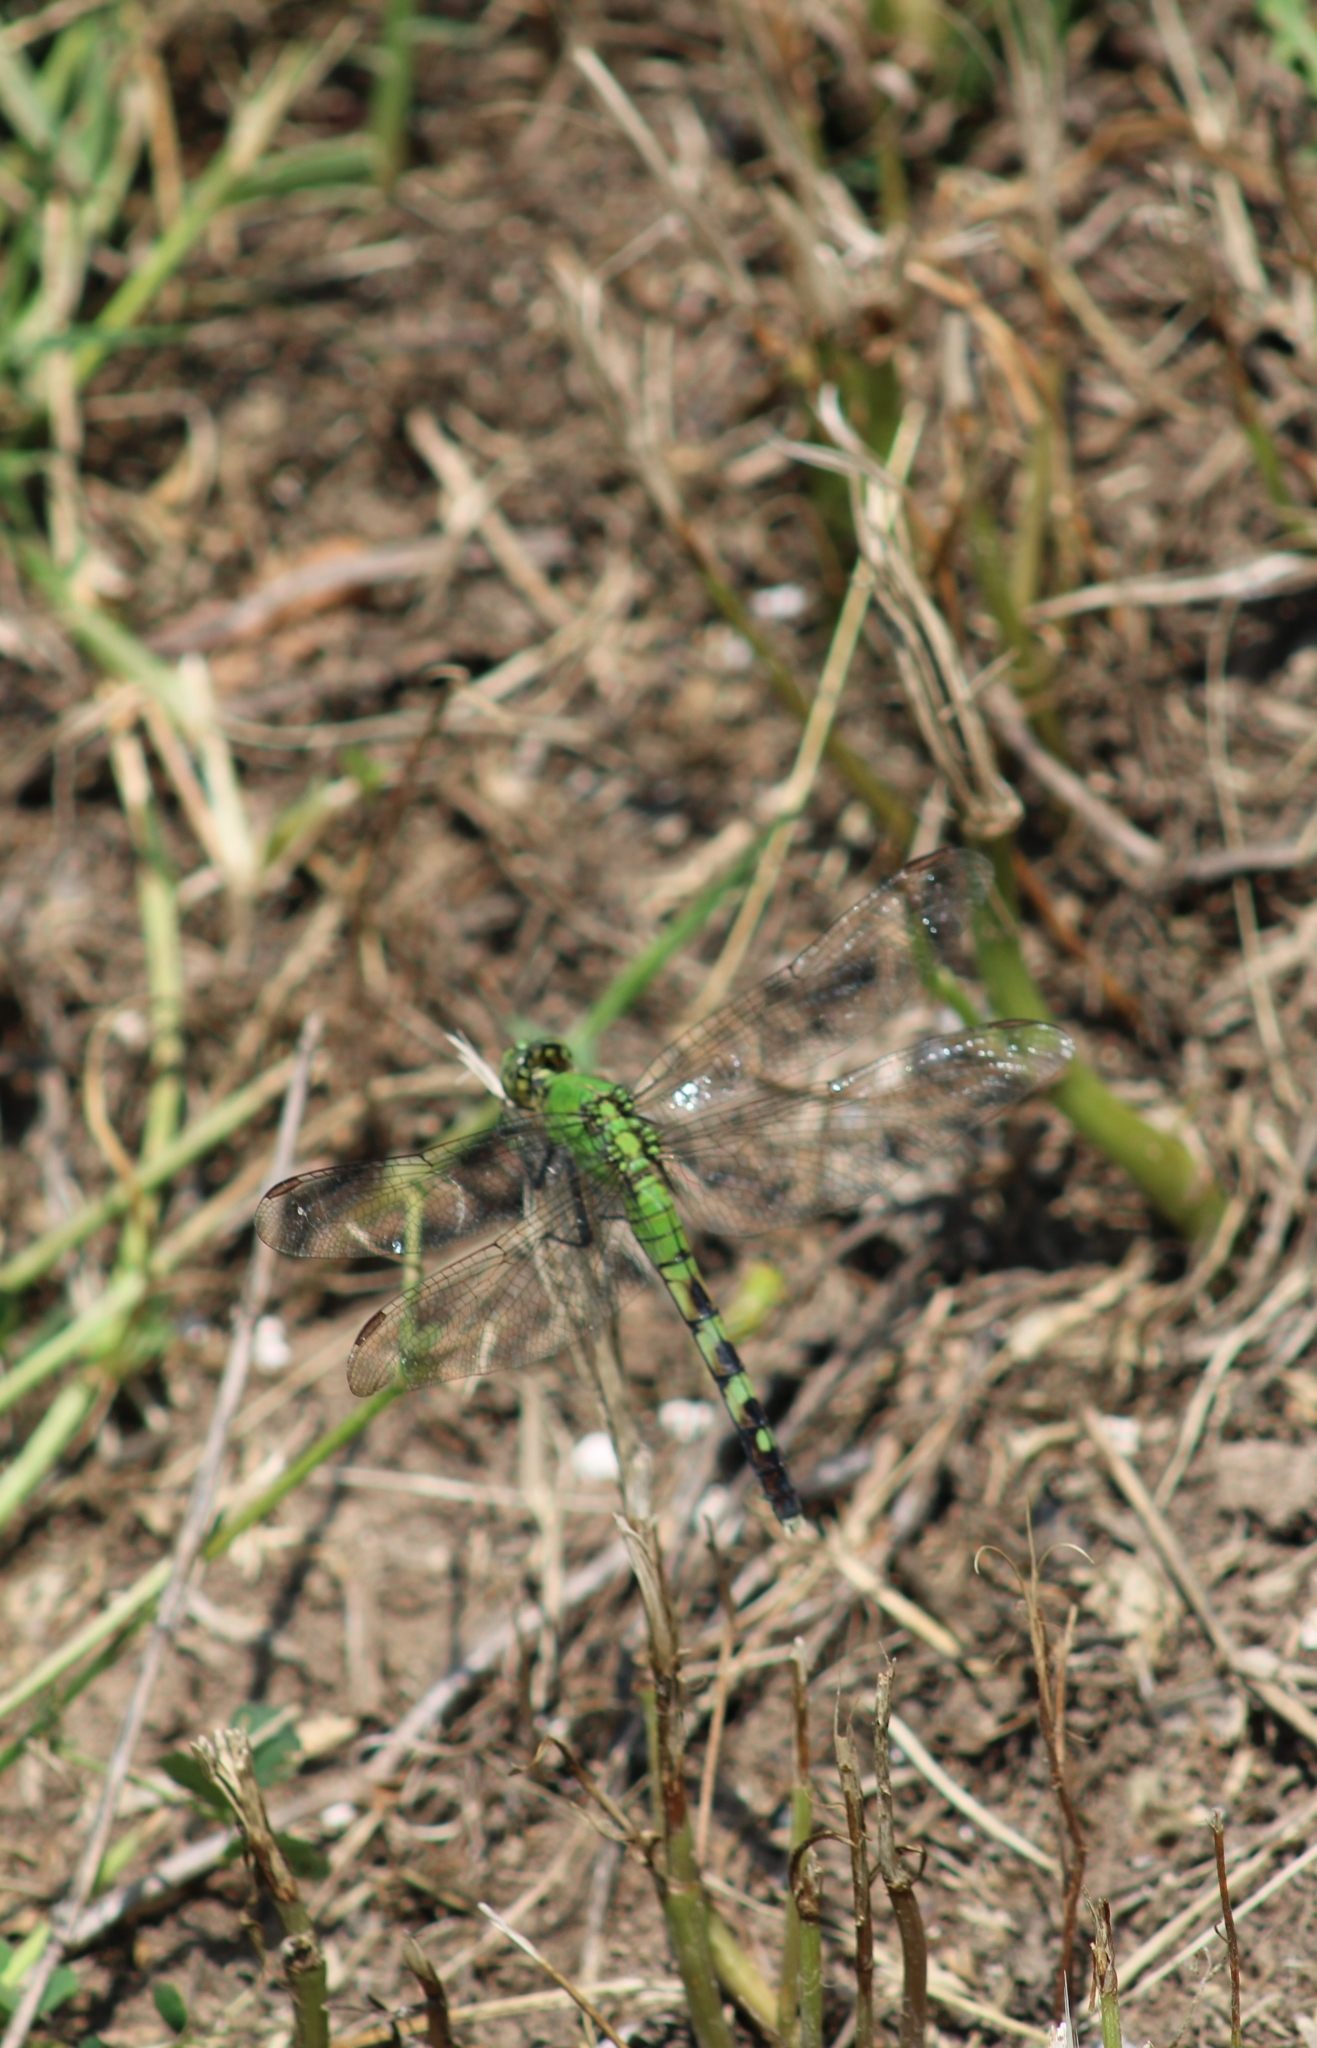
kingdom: Animalia
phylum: Arthropoda
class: Insecta
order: Odonata
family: Libellulidae
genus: Erythemis
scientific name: Erythemis simplicicollis
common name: Eastern pondhawk
